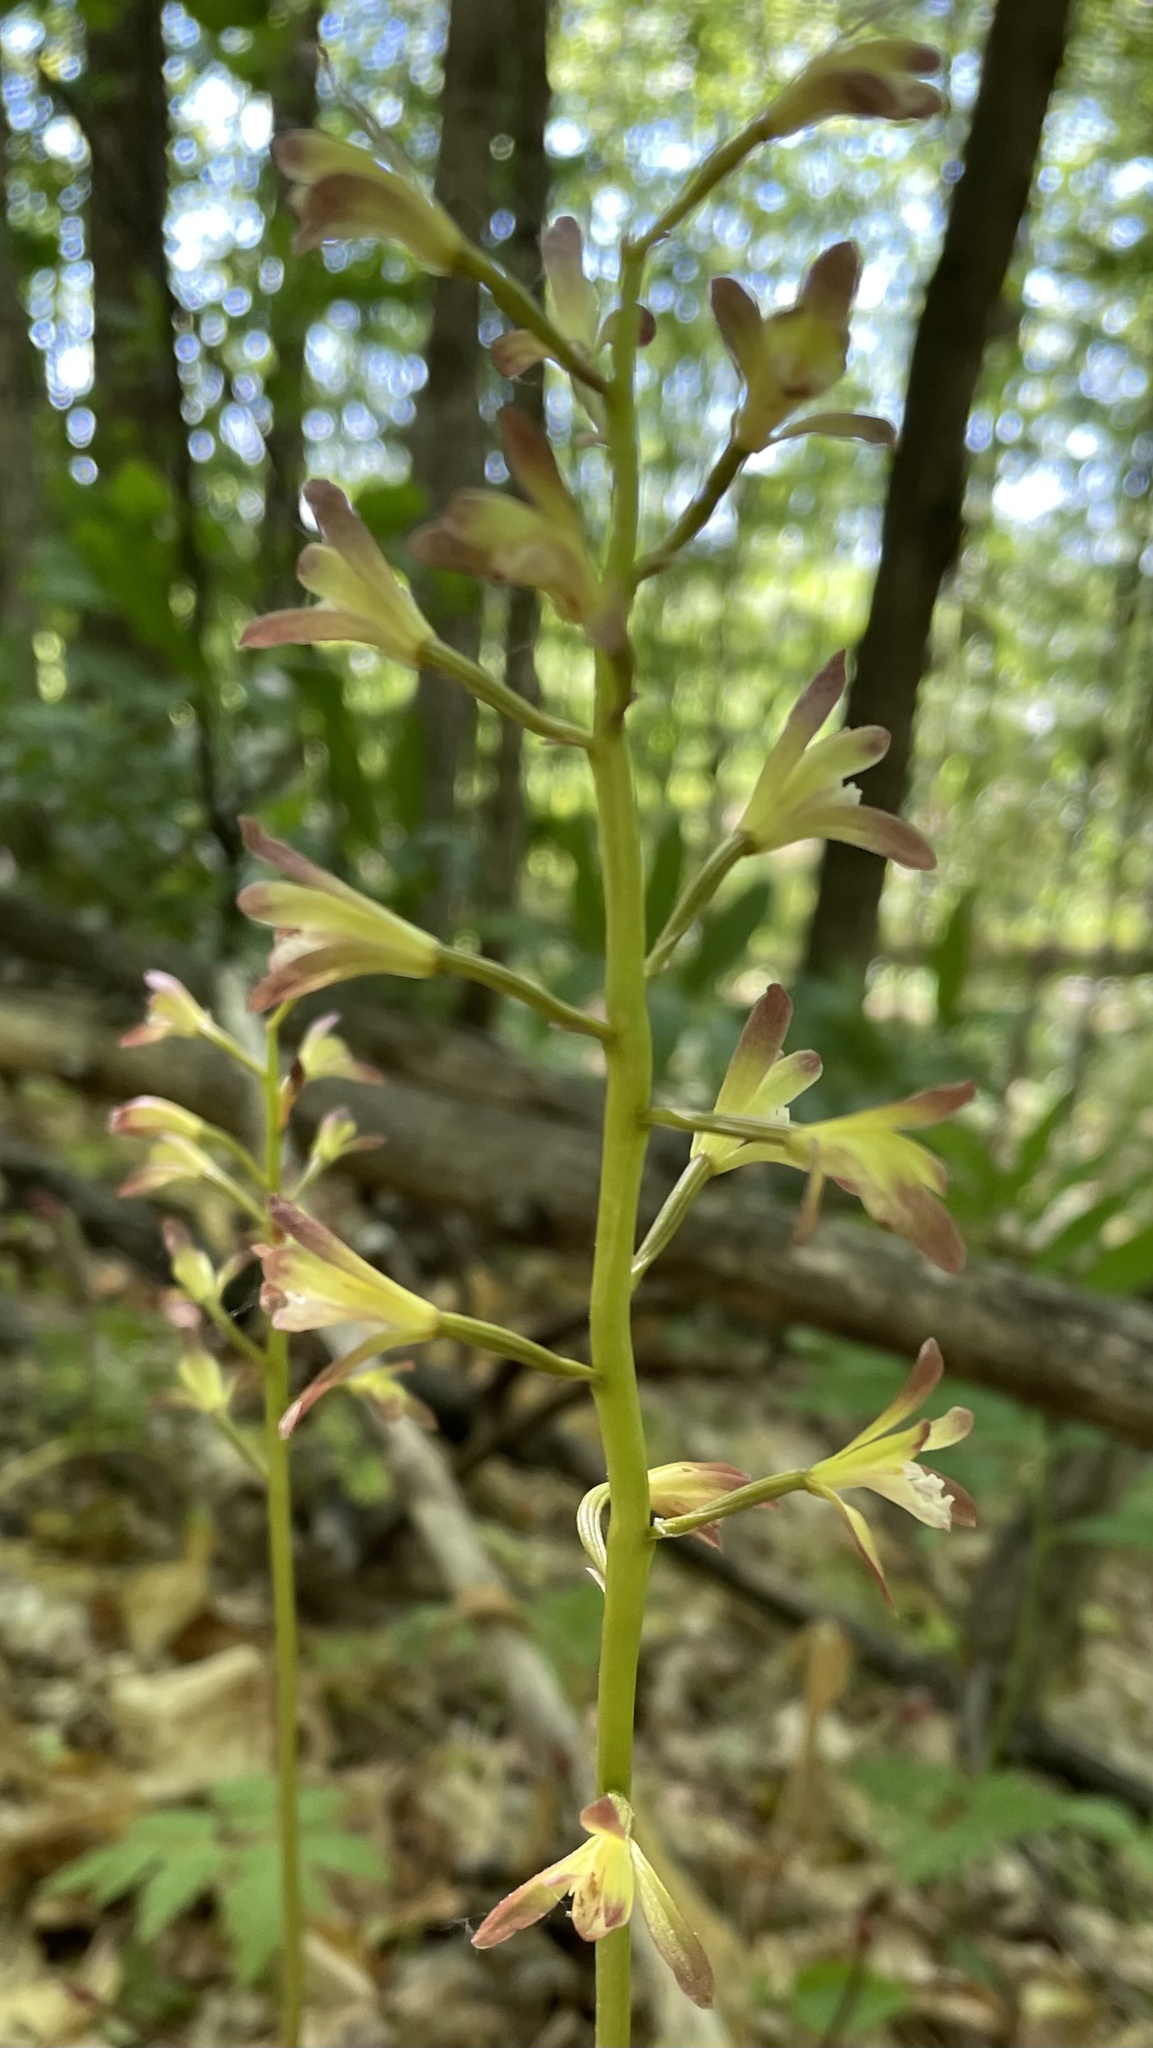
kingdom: Plantae
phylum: Tracheophyta
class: Liliopsida
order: Asparagales
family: Orchidaceae
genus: Aplectrum
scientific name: Aplectrum hyemale
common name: Adam-and-eve
